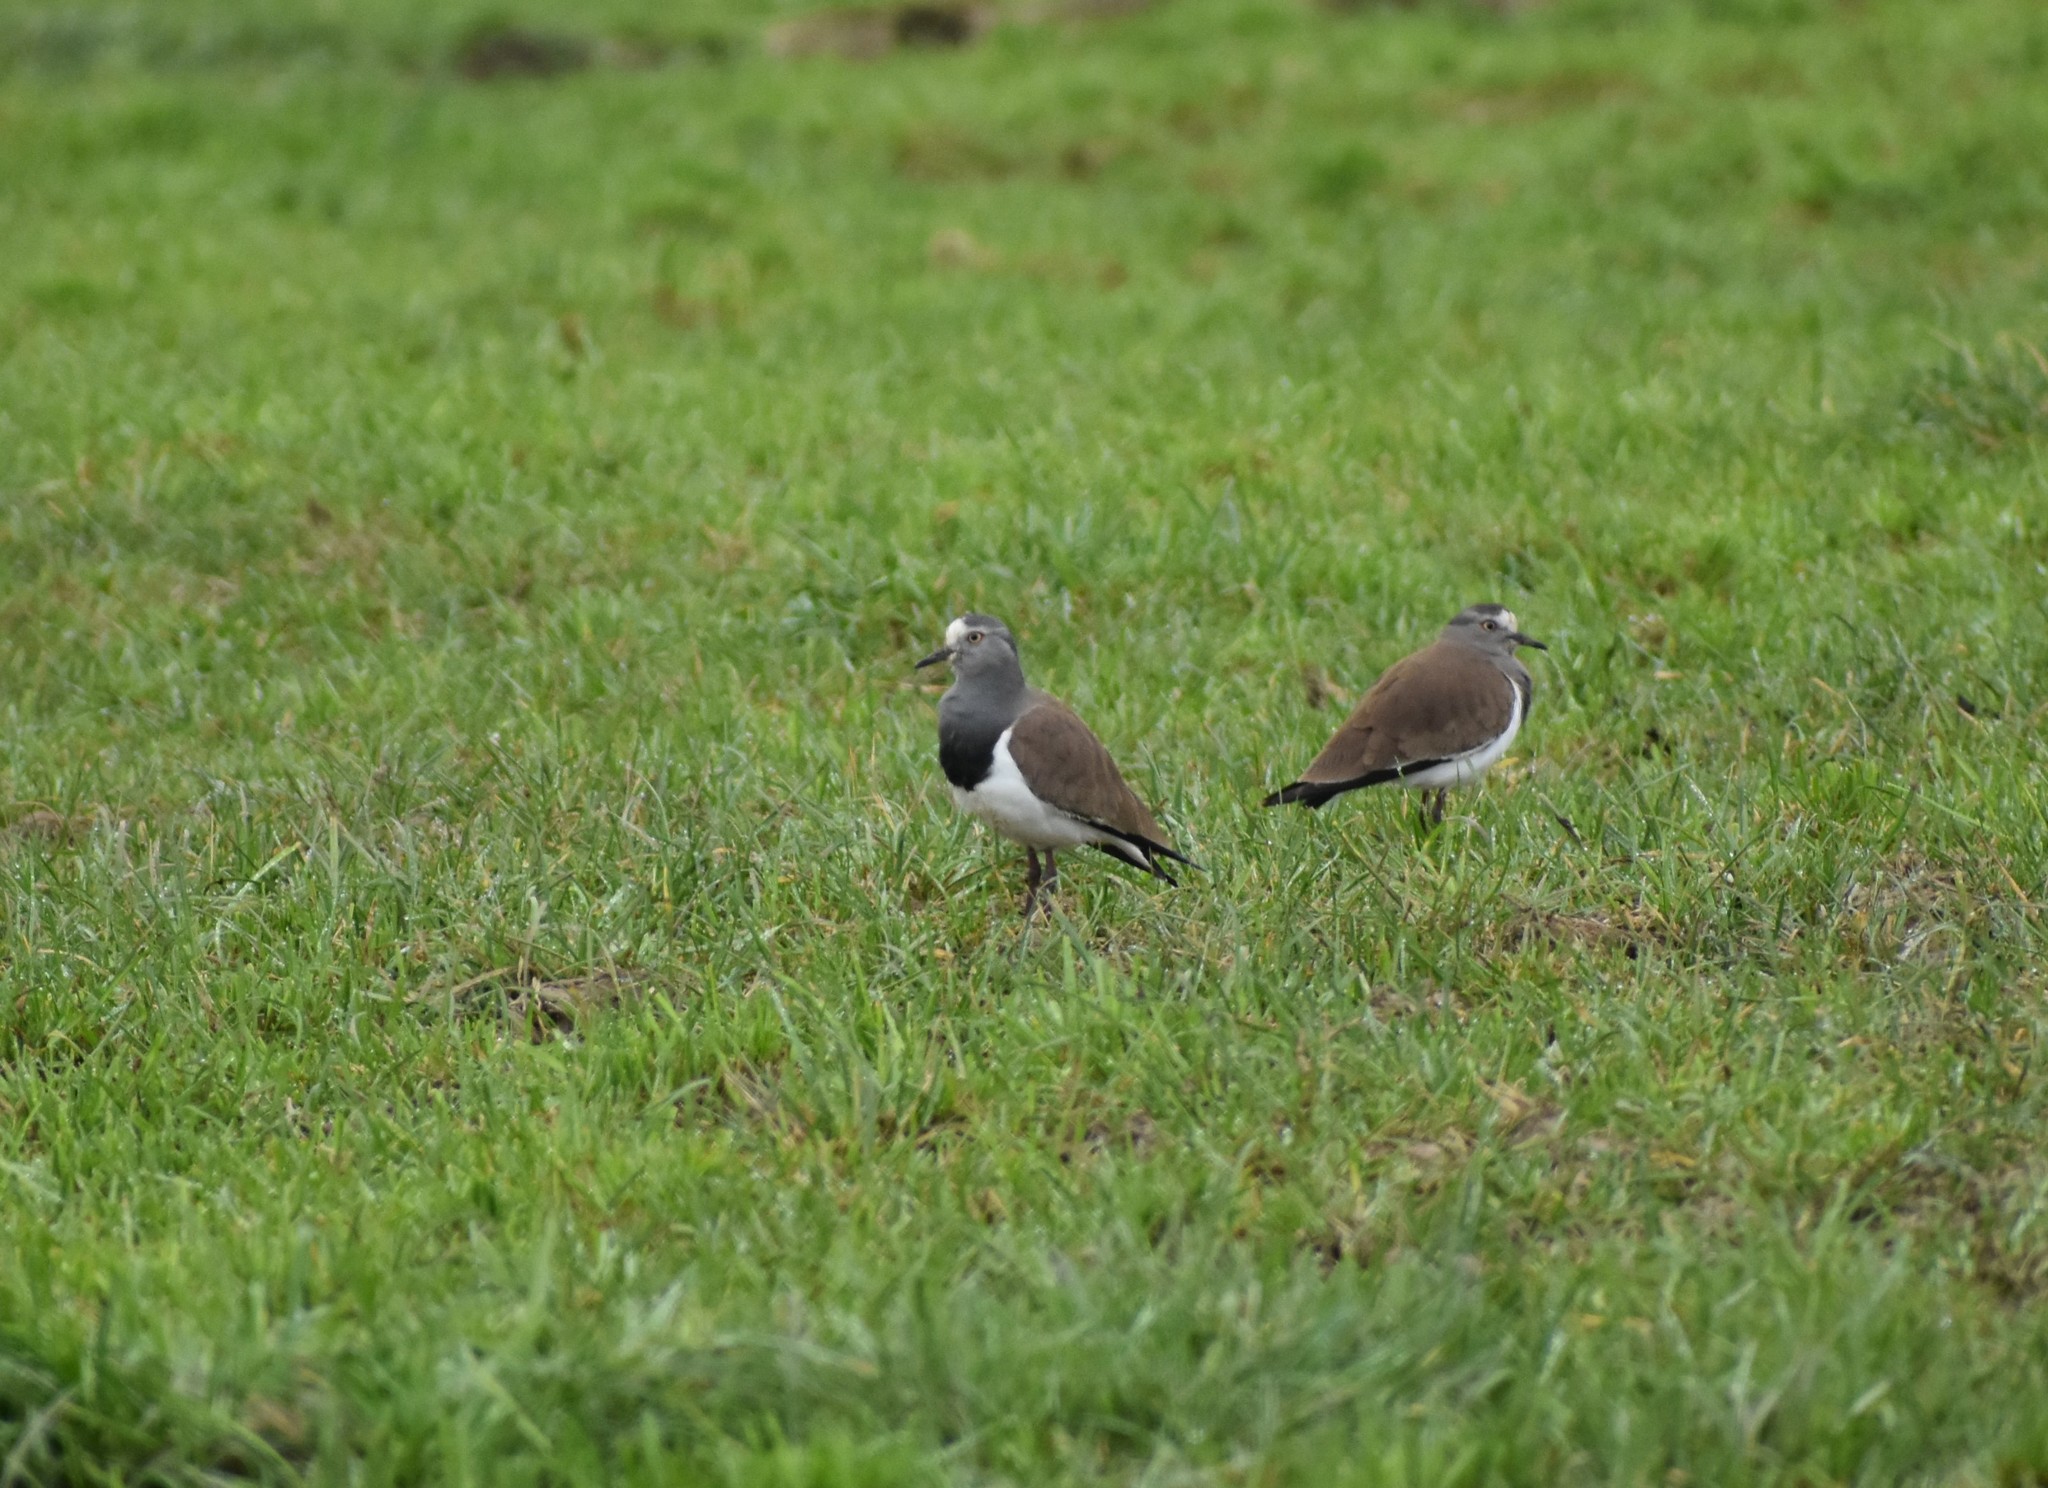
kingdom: Animalia
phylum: Chordata
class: Aves
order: Charadriiformes
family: Charadriidae
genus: Vanellus
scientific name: Vanellus melanopterus
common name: Black-winged lapwing
